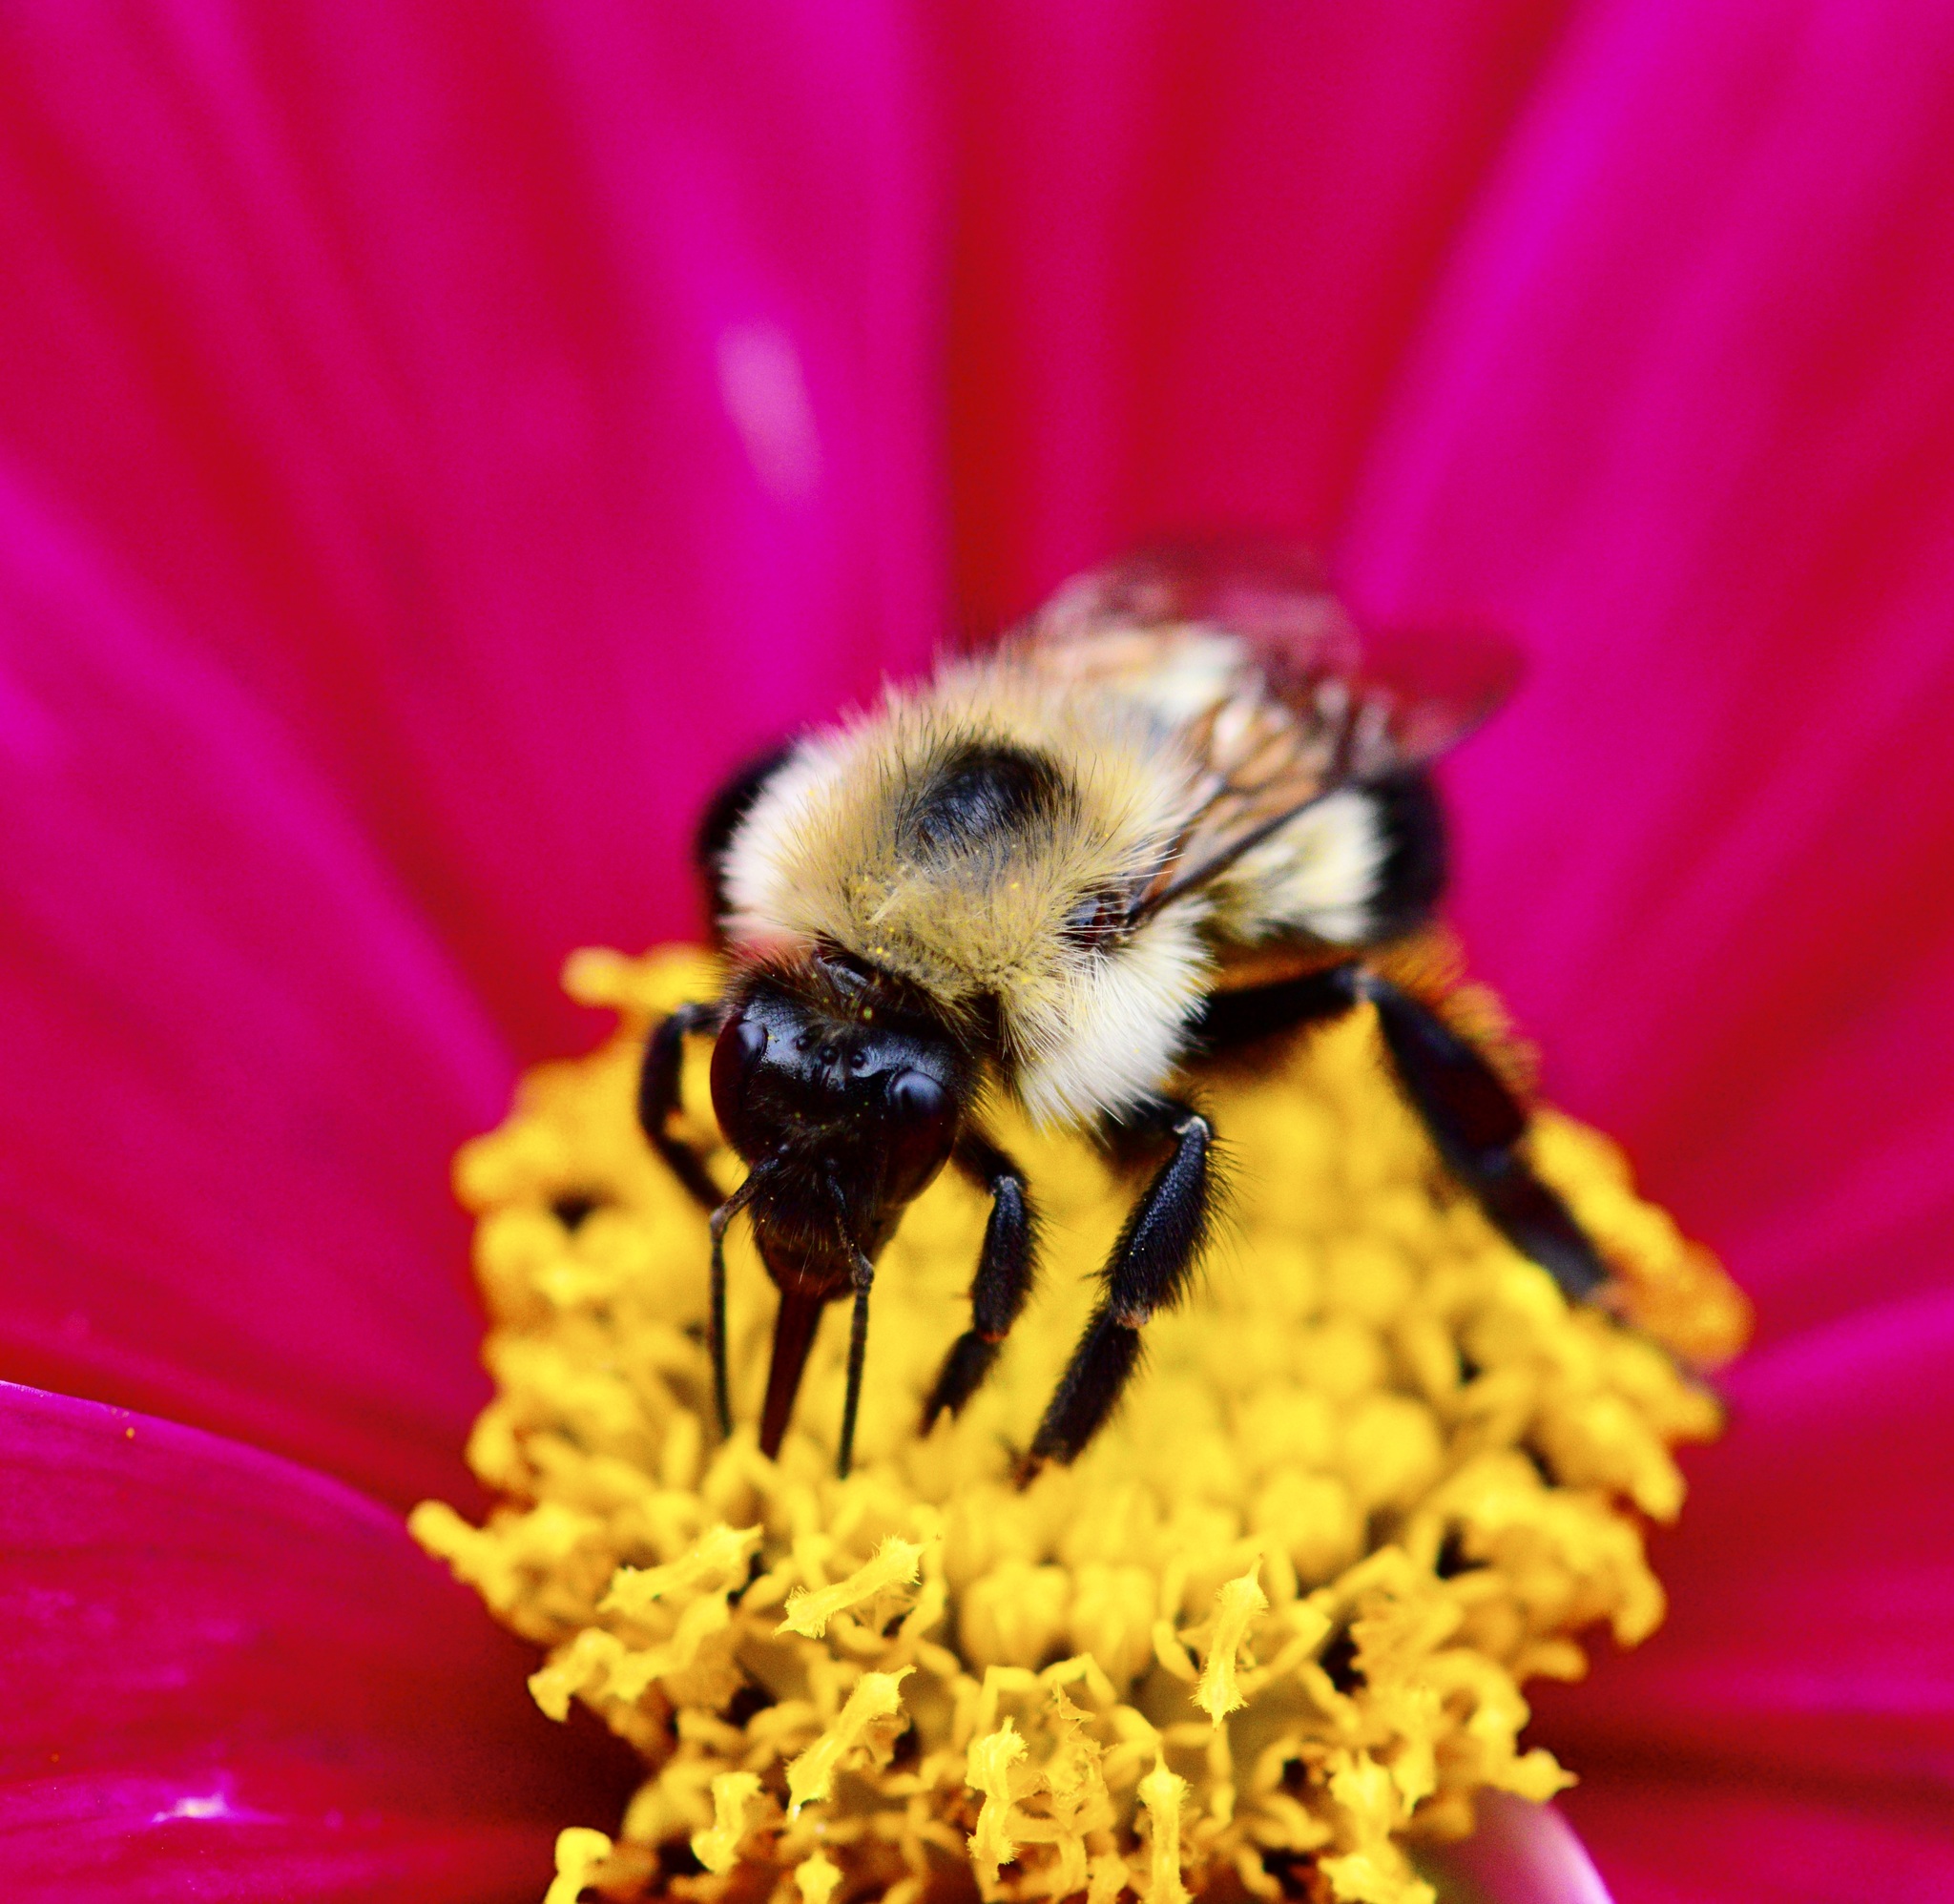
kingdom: Animalia
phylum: Arthropoda
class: Insecta
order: Hymenoptera
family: Apidae
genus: Bombus
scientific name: Bombus vagans
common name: Half-black bumble bee
